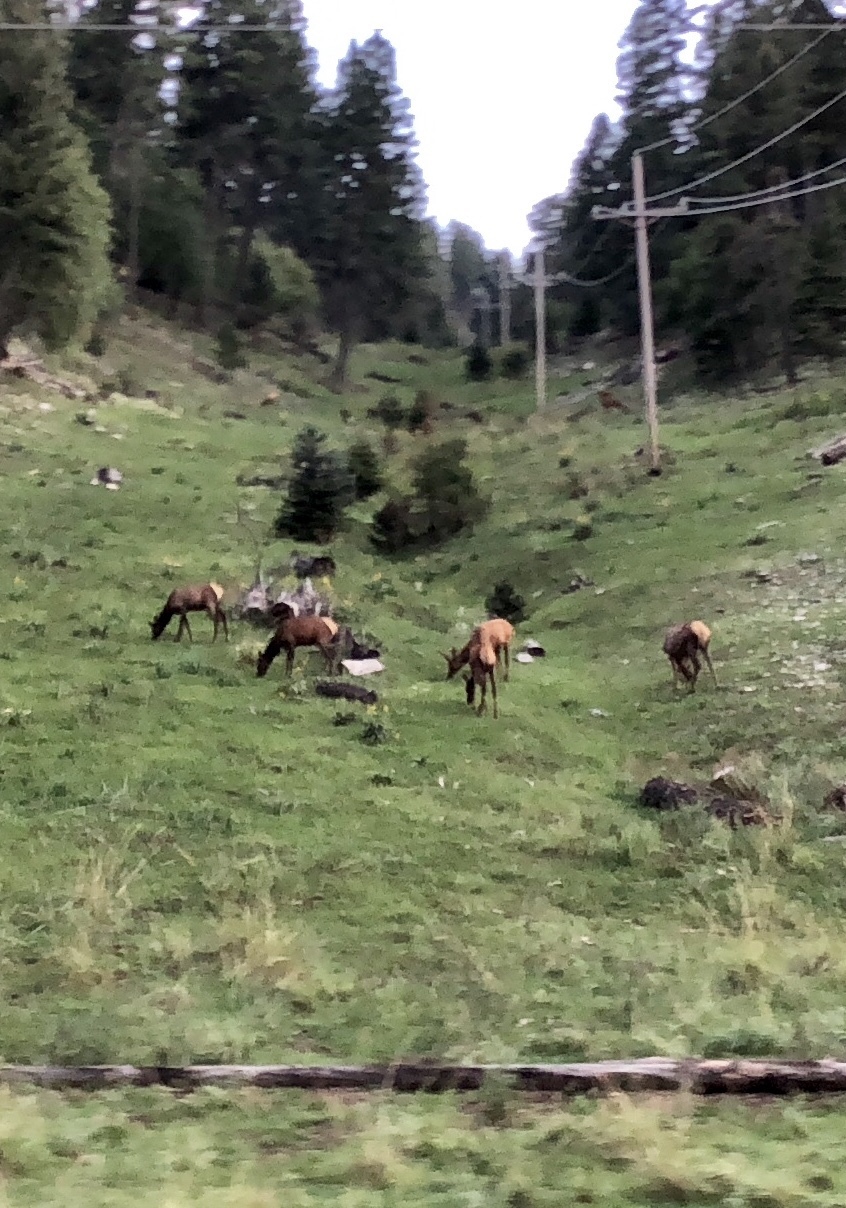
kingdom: Animalia
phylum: Chordata
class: Mammalia
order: Artiodactyla
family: Cervidae
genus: Cervus
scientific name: Cervus elaphus
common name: Red deer
